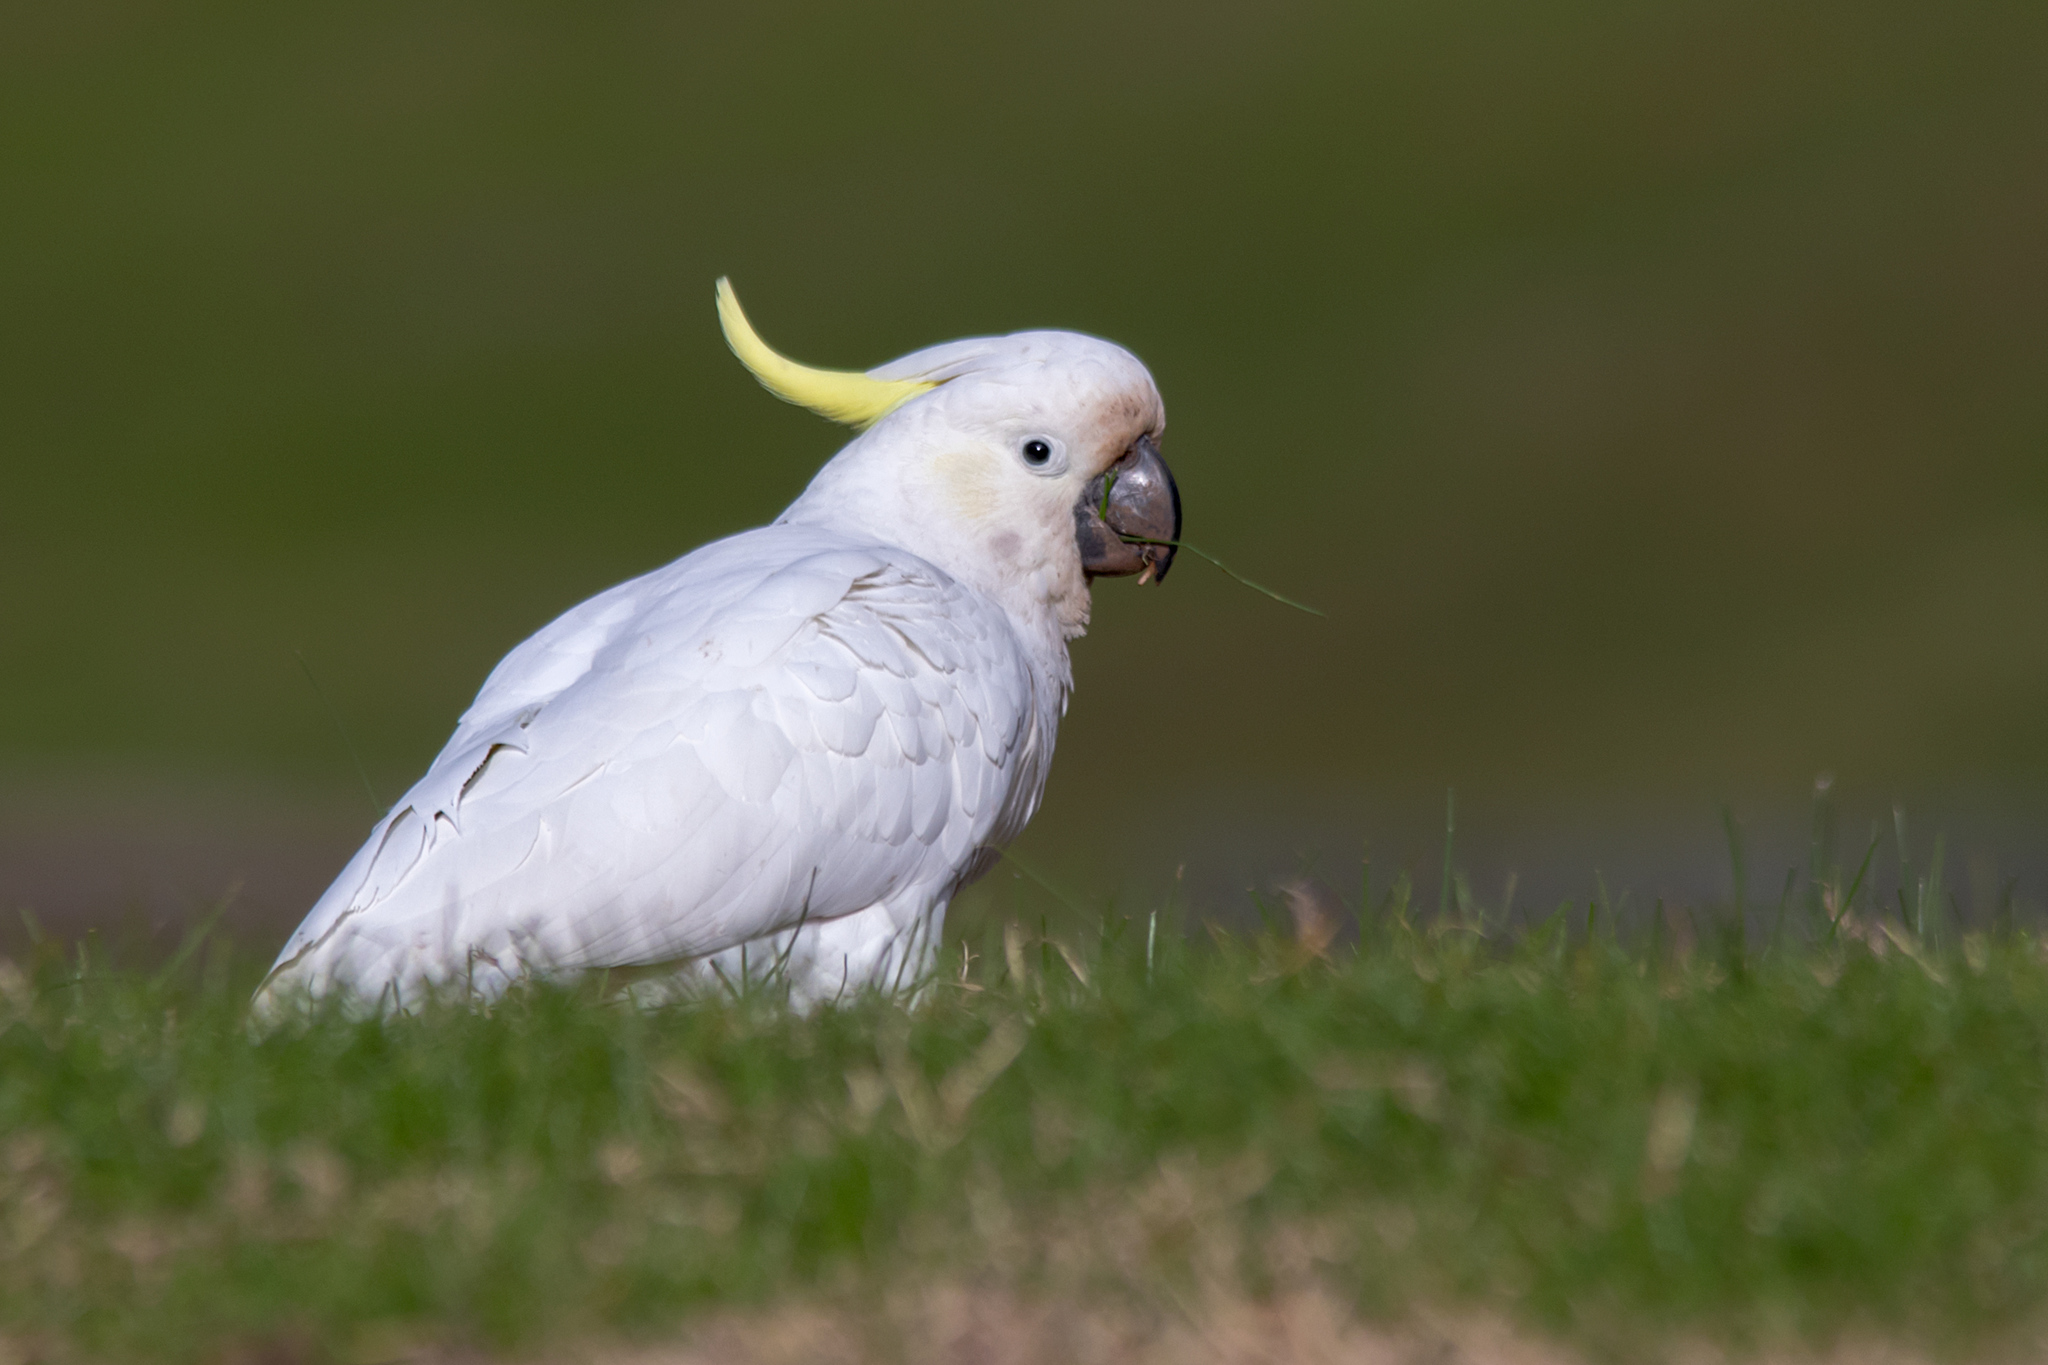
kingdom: Animalia
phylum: Chordata
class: Aves
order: Psittaciformes
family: Psittacidae
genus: Cacatua
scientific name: Cacatua galerita
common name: Sulphur-crested cockatoo
